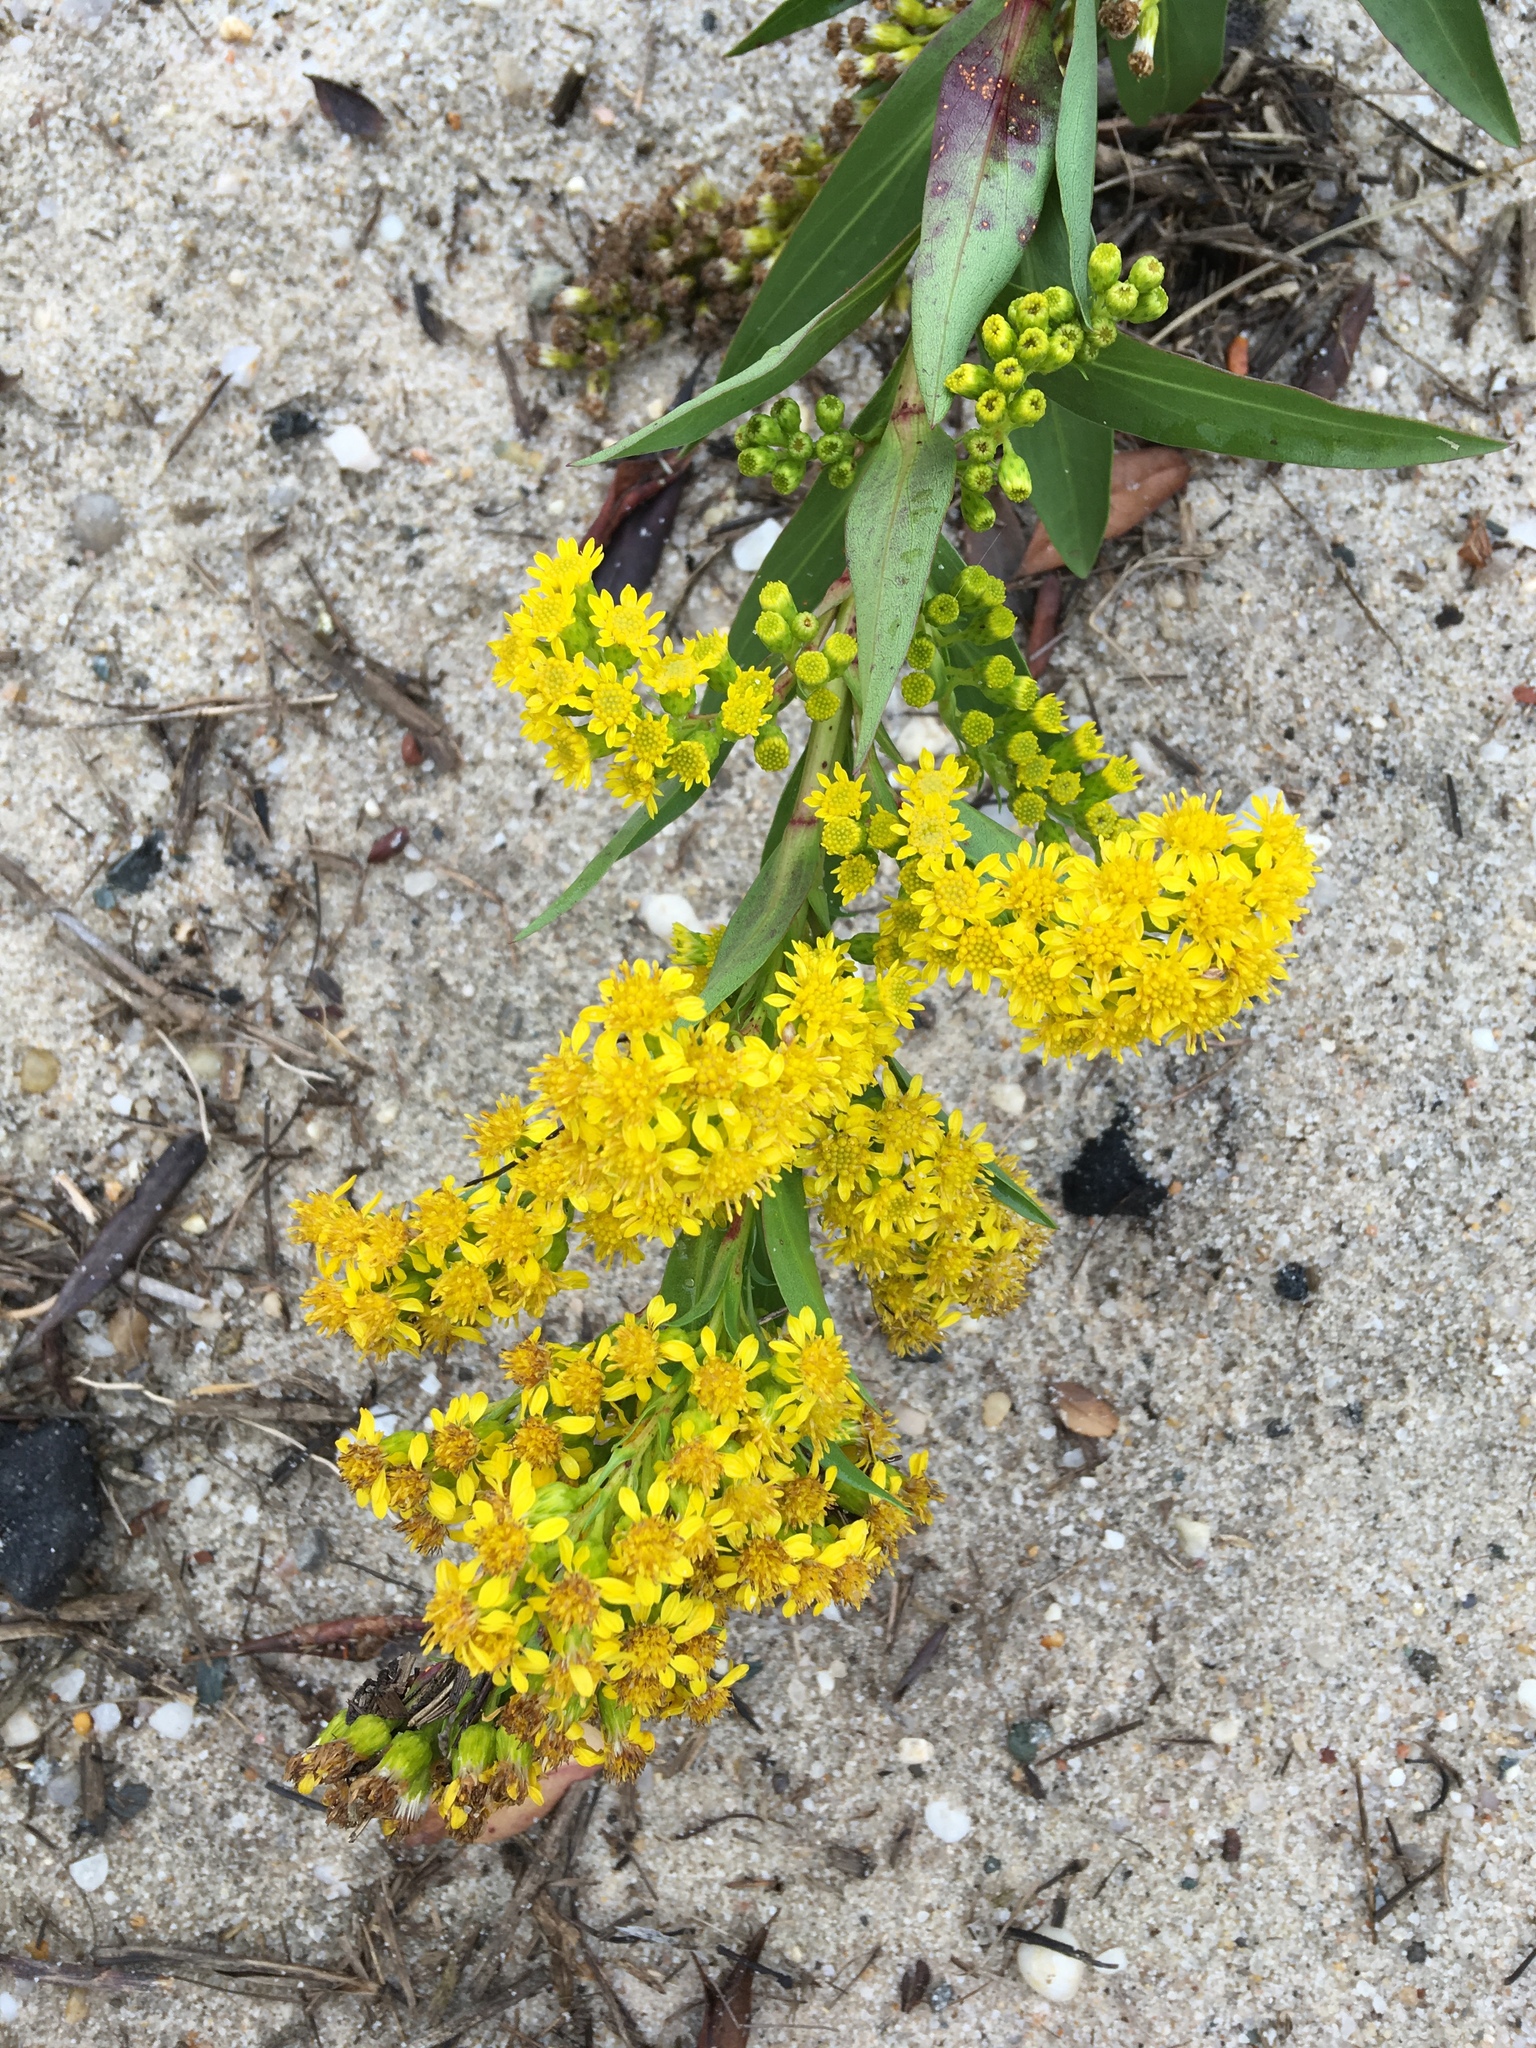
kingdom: Plantae
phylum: Tracheophyta
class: Magnoliopsida
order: Asterales
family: Asteraceae
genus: Solidago
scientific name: Solidago sempervirens
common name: Salt-marsh goldenrod
